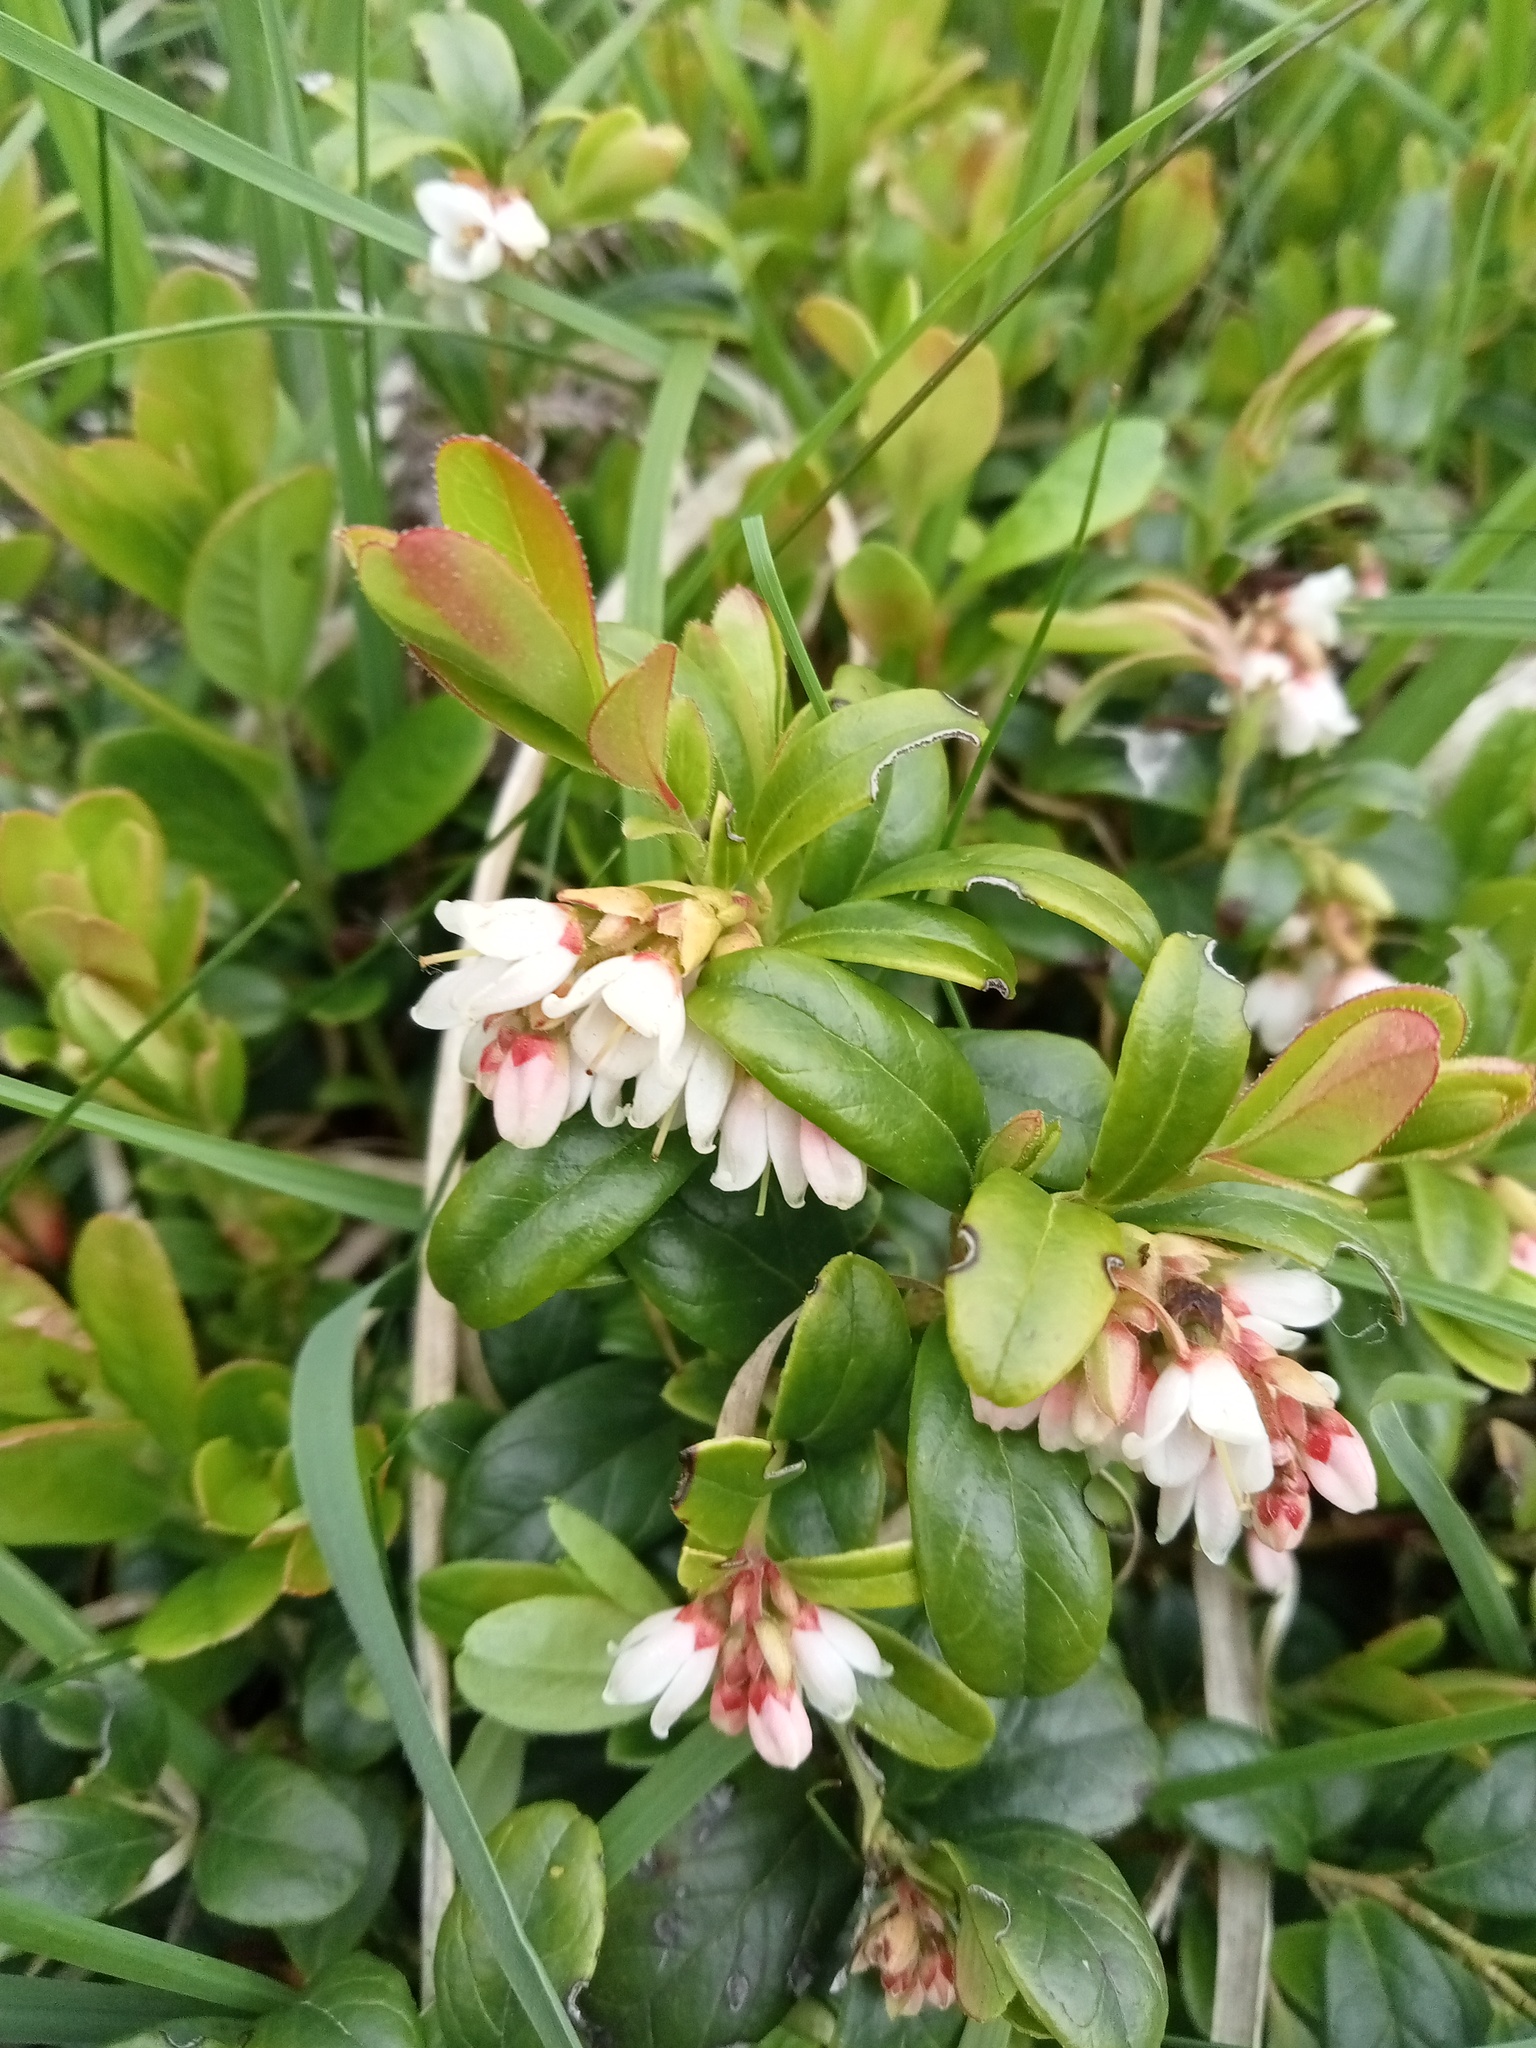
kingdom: Plantae
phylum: Tracheophyta
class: Magnoliopsida
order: Ericales
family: Ericaceae
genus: Vaccinium
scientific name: Vaccinium vitis-idaea
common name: Cowberry
